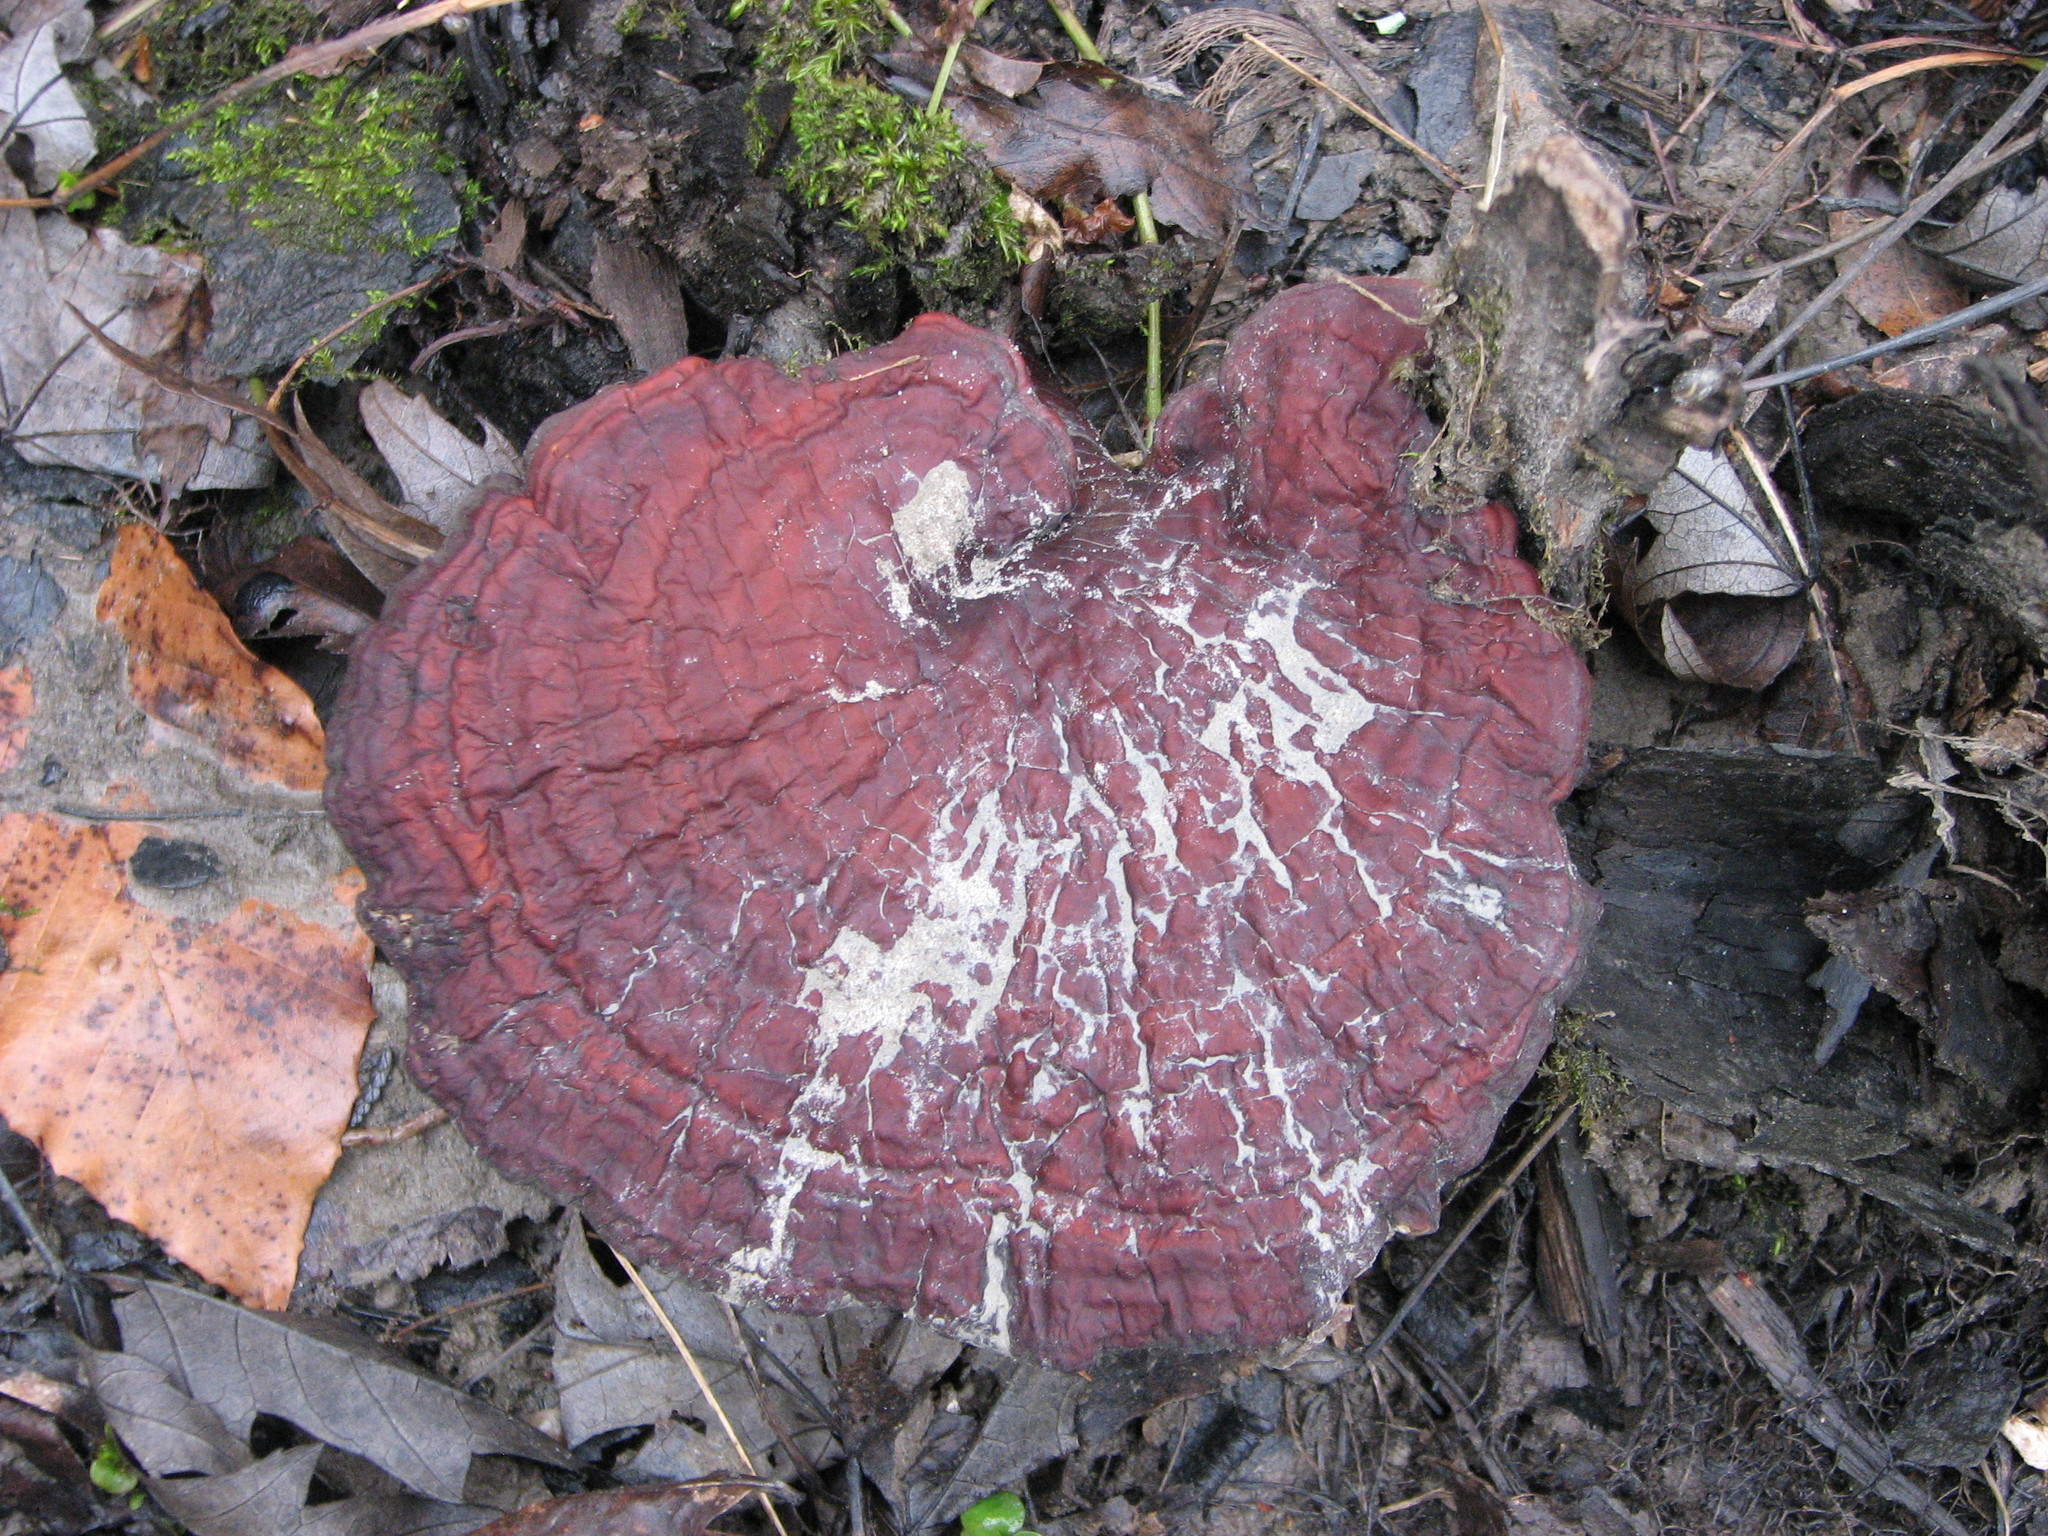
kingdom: Fungi
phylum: Basidiomycota
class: Agaricomycetes
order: Polyporales
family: Polyporaceae
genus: Ganoderma
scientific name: Ganoderma tsugae
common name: Hemlock varnish shelf
